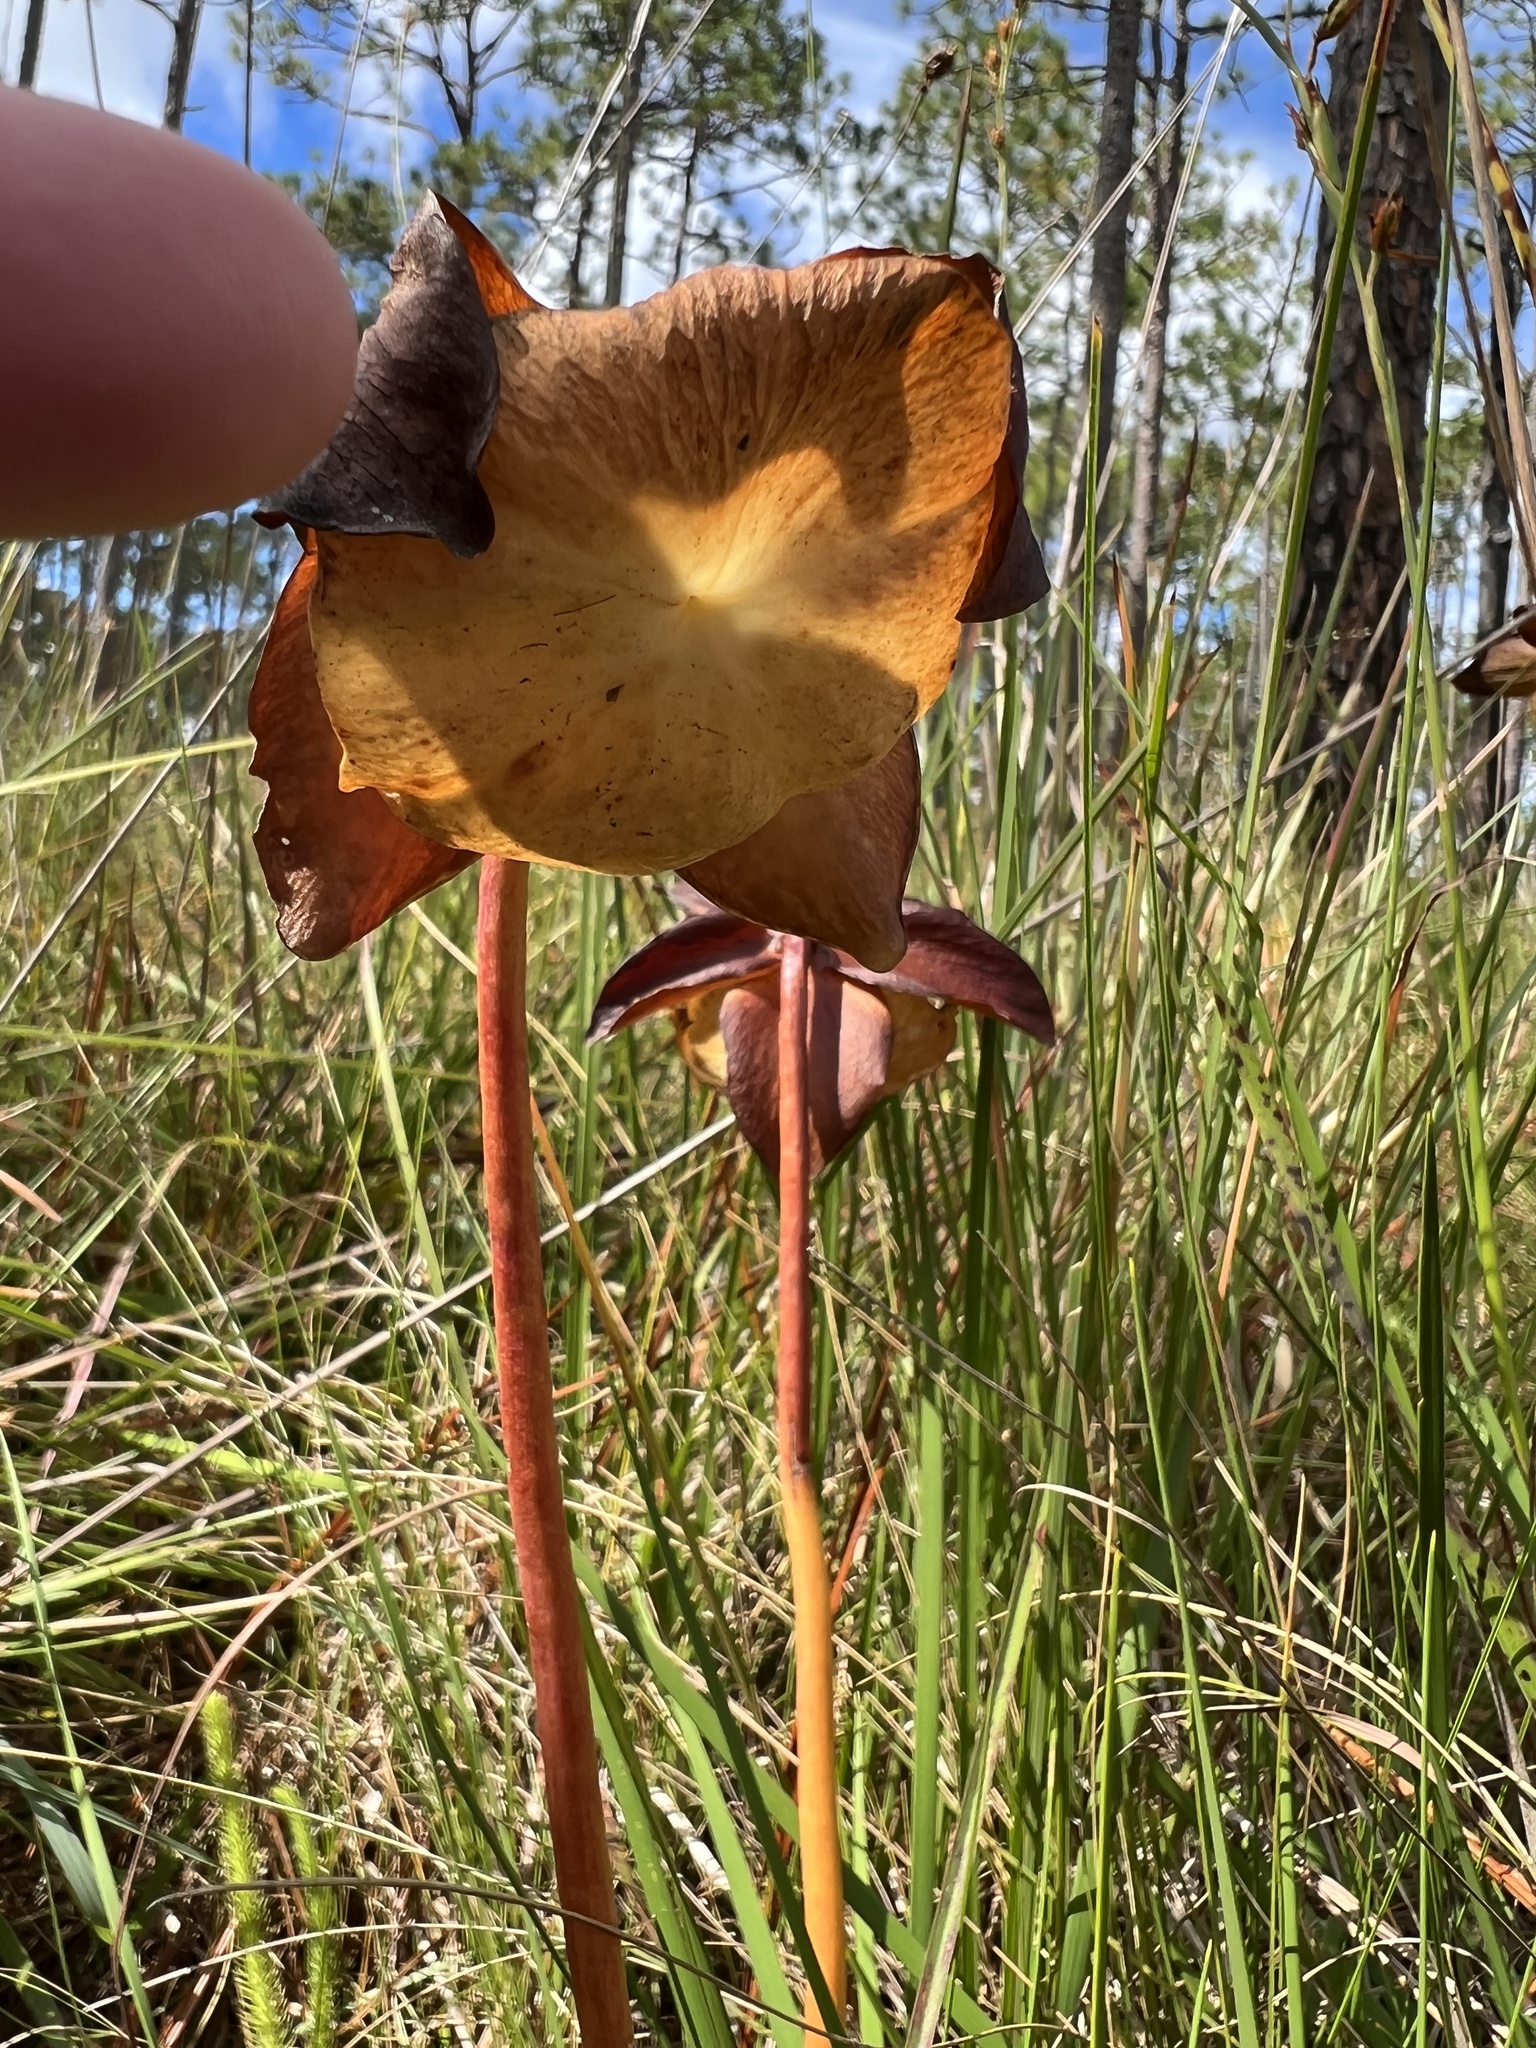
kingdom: Plantae
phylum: Tracheophyta
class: Magnoliopsida
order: Ericales
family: Sarraceniaceae
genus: Sarracenia
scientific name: Sarracenia purpurea
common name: Pitcherplant
